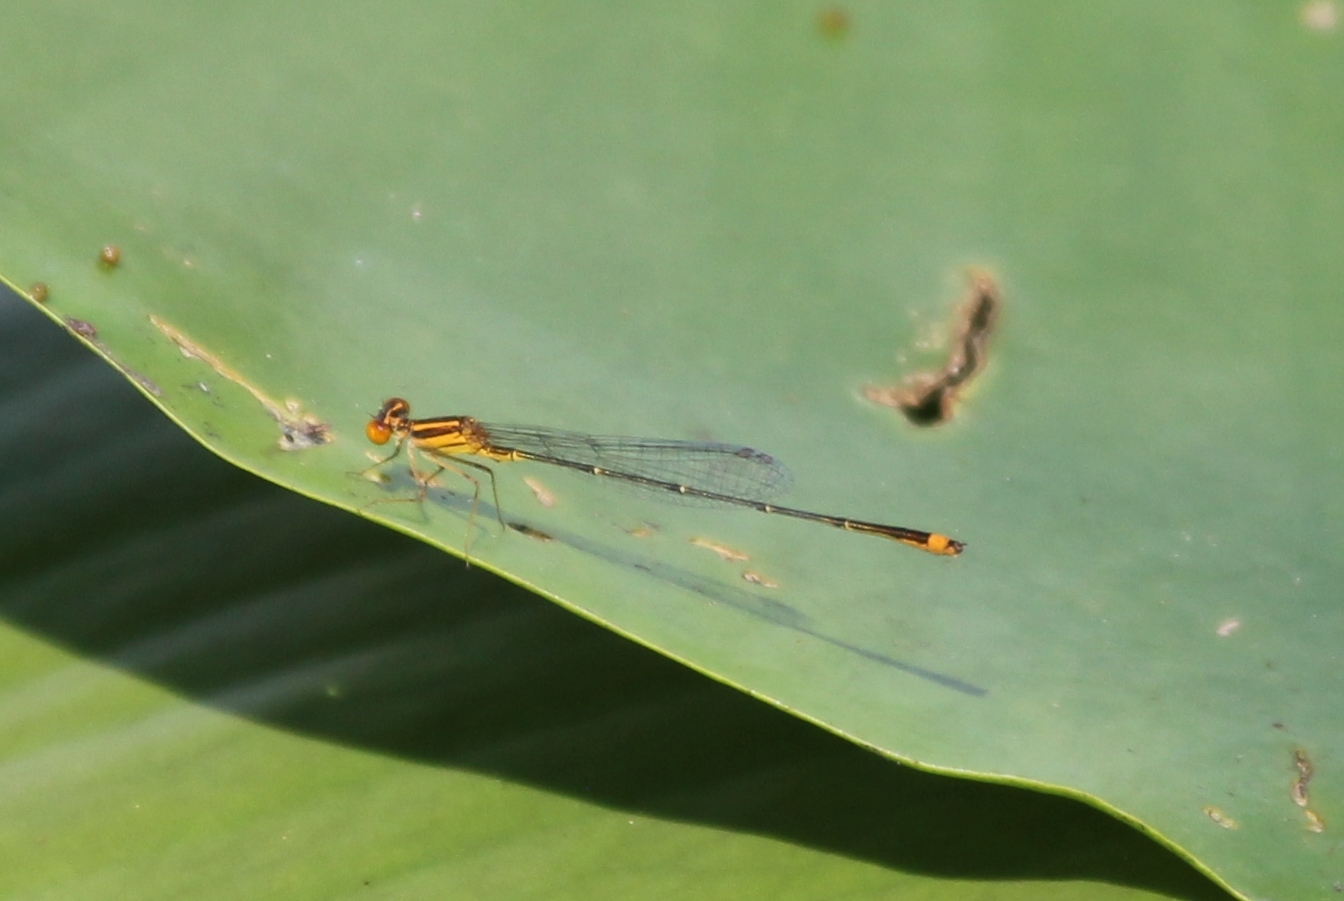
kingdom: Animalia
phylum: Arthropoda
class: Insecta
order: Odonata
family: Coenagrionidae
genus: Enallagma
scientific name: Enallagma pollutum
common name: Florida bluet
